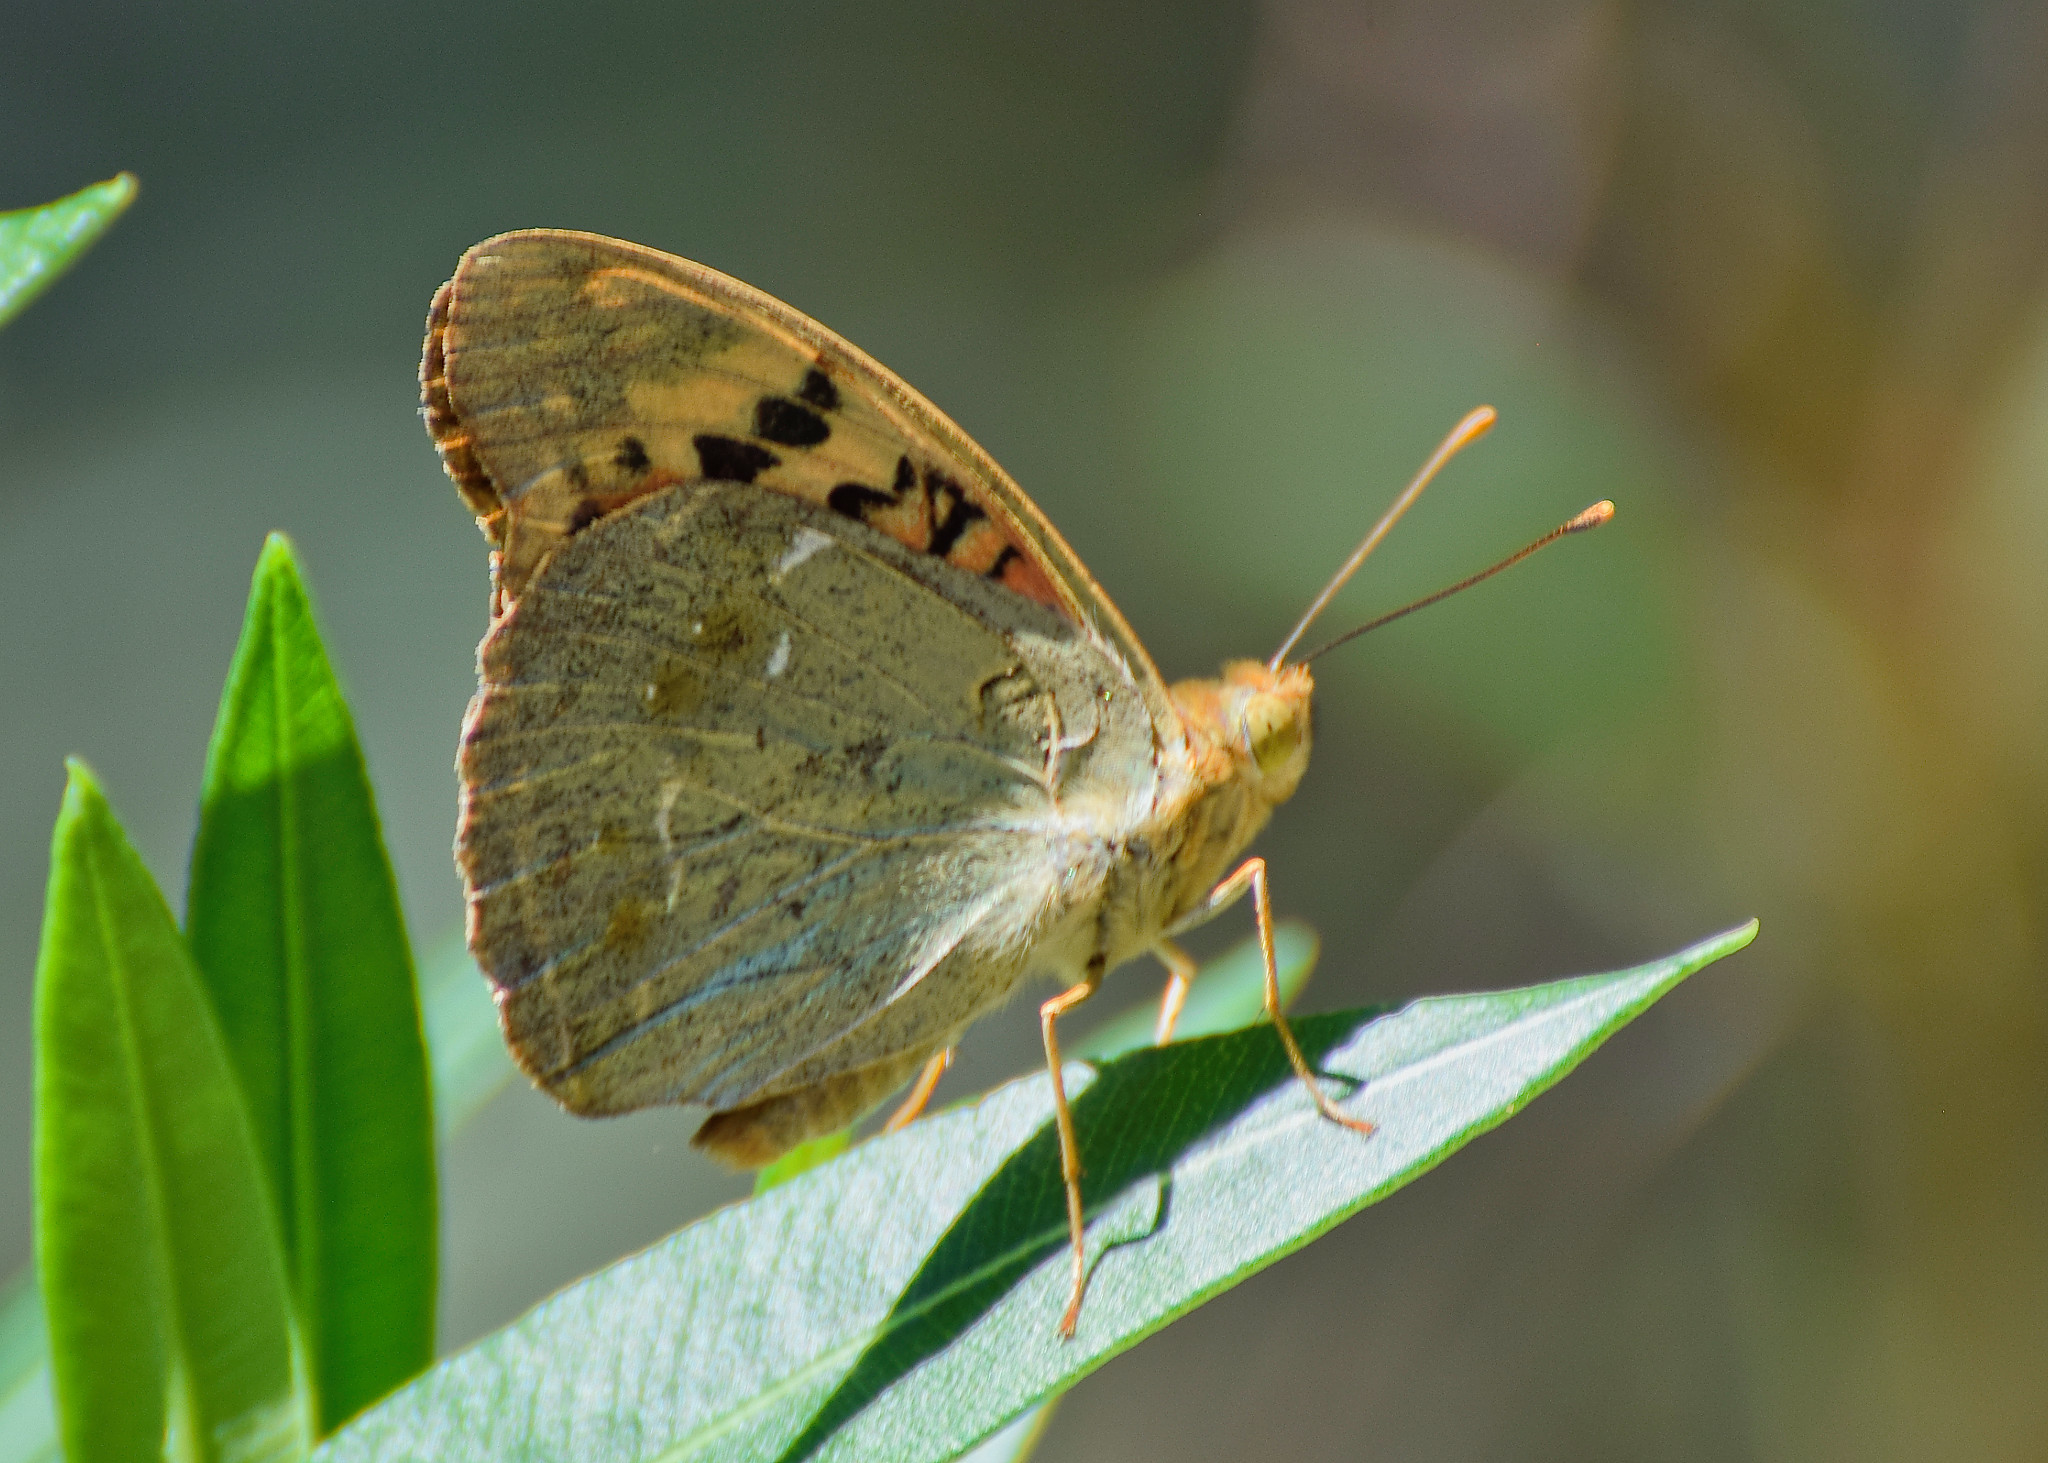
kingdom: Animalia
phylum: Arthropoda
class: Insecta
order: Lepidoptera
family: Nymphalidae
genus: Damora
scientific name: Damora pandora
